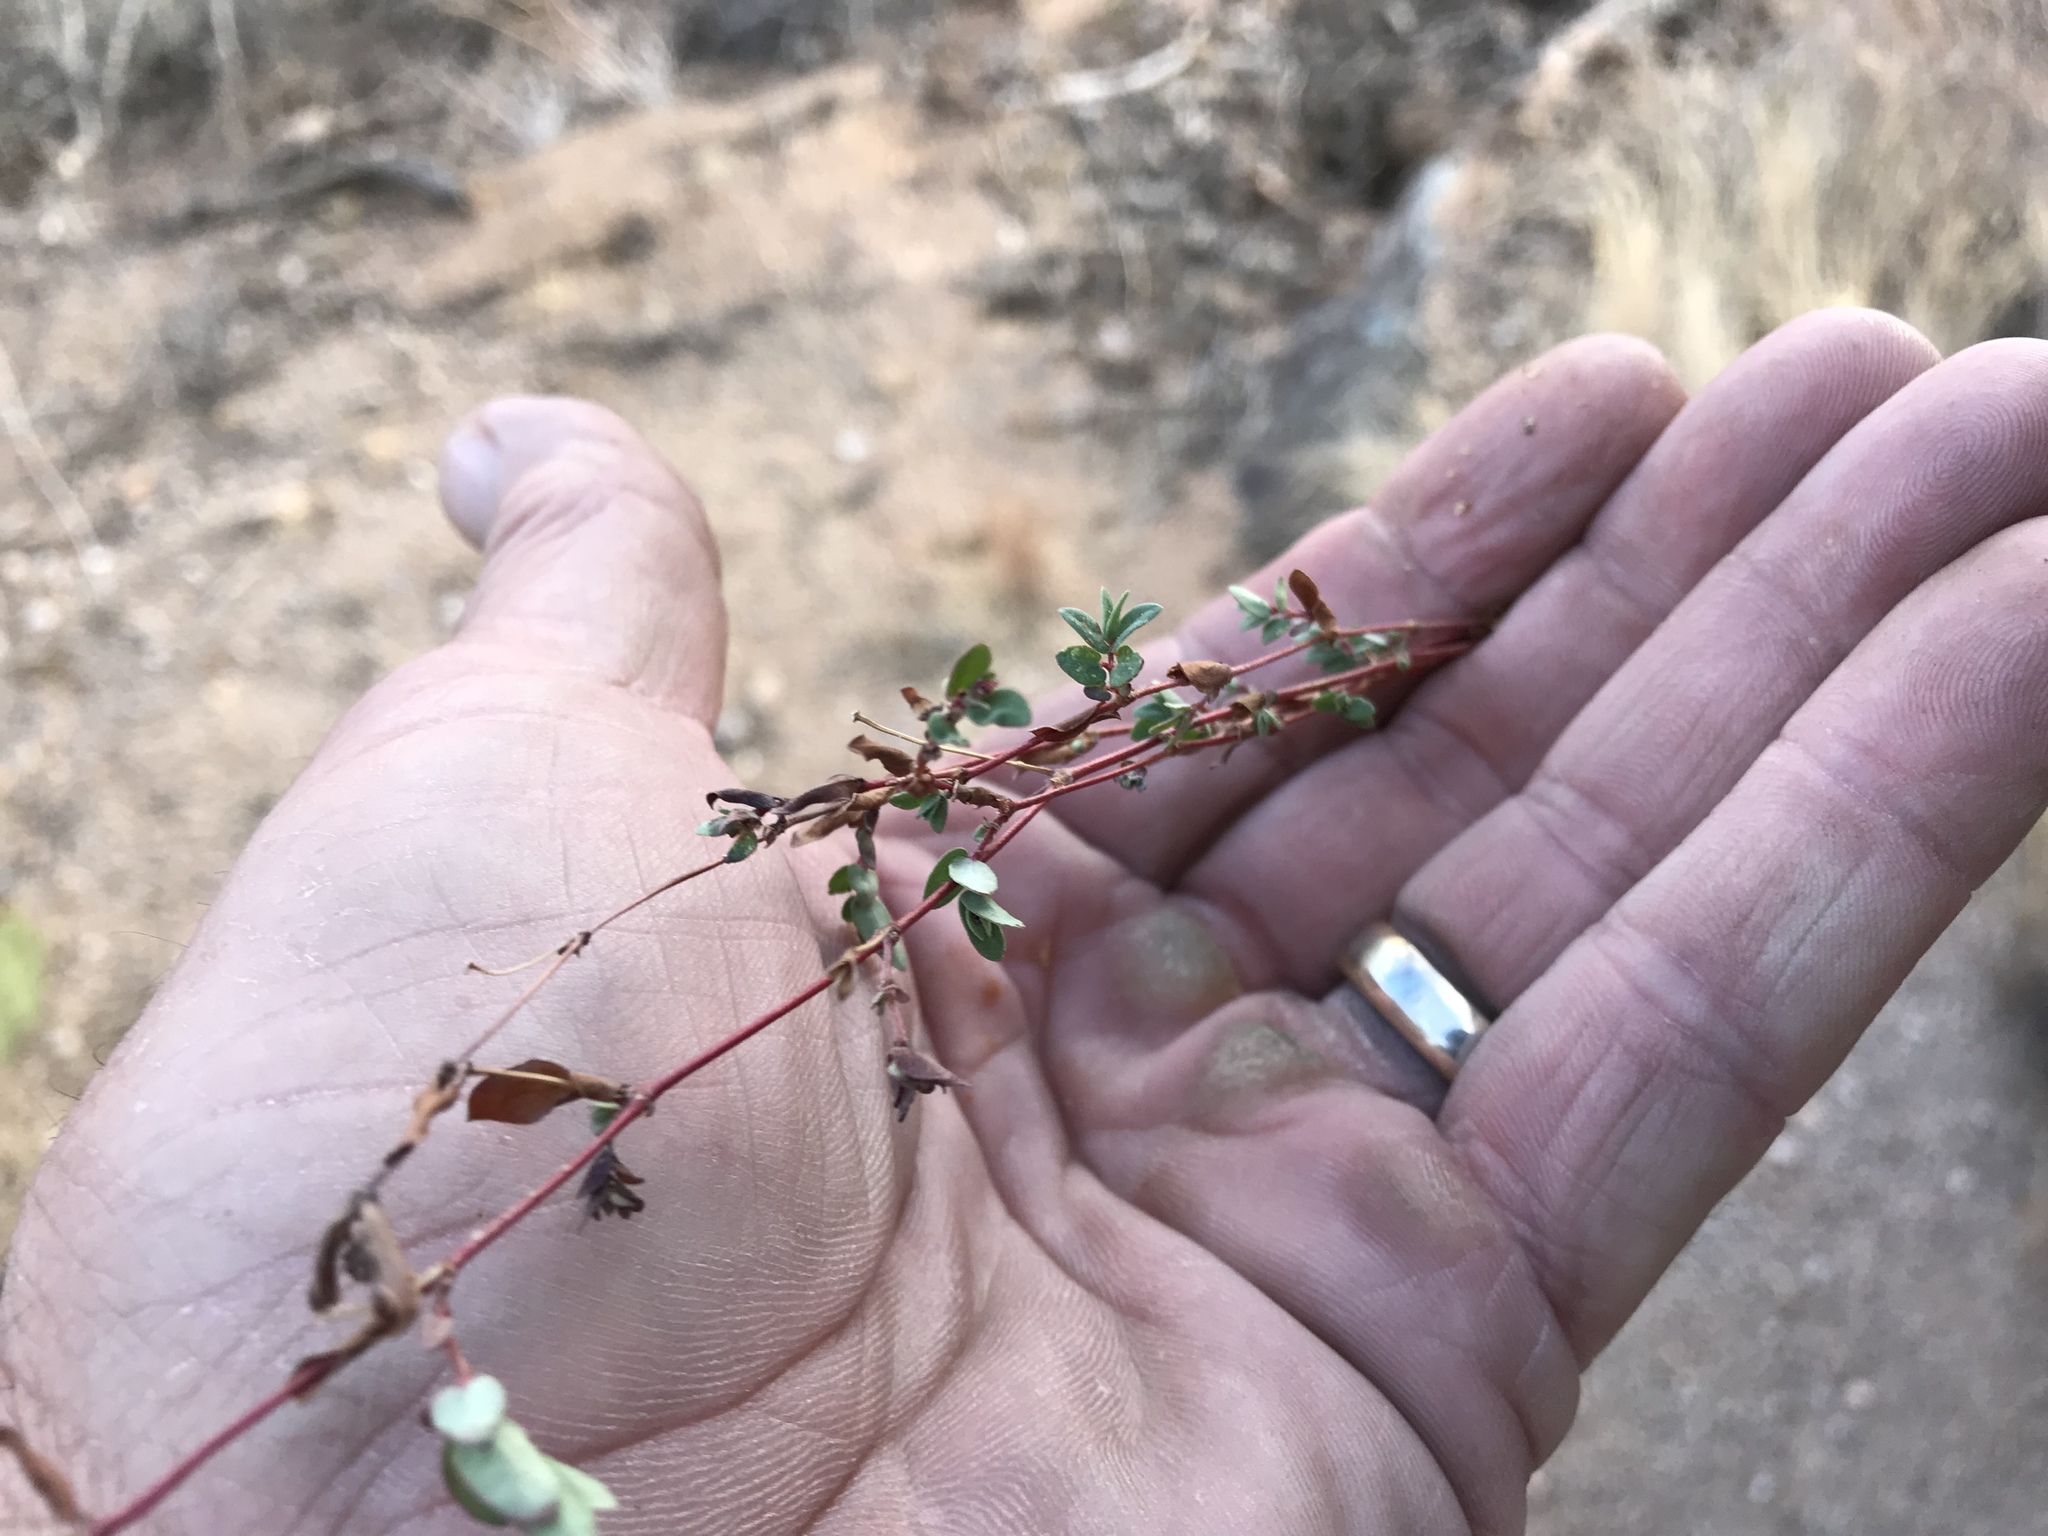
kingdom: Plantae
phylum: Tracheophyta
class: Magnoliopsida
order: Malpighiales
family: Euphorbiaceae
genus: Euphorbia
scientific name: Euphorbia capitellata
